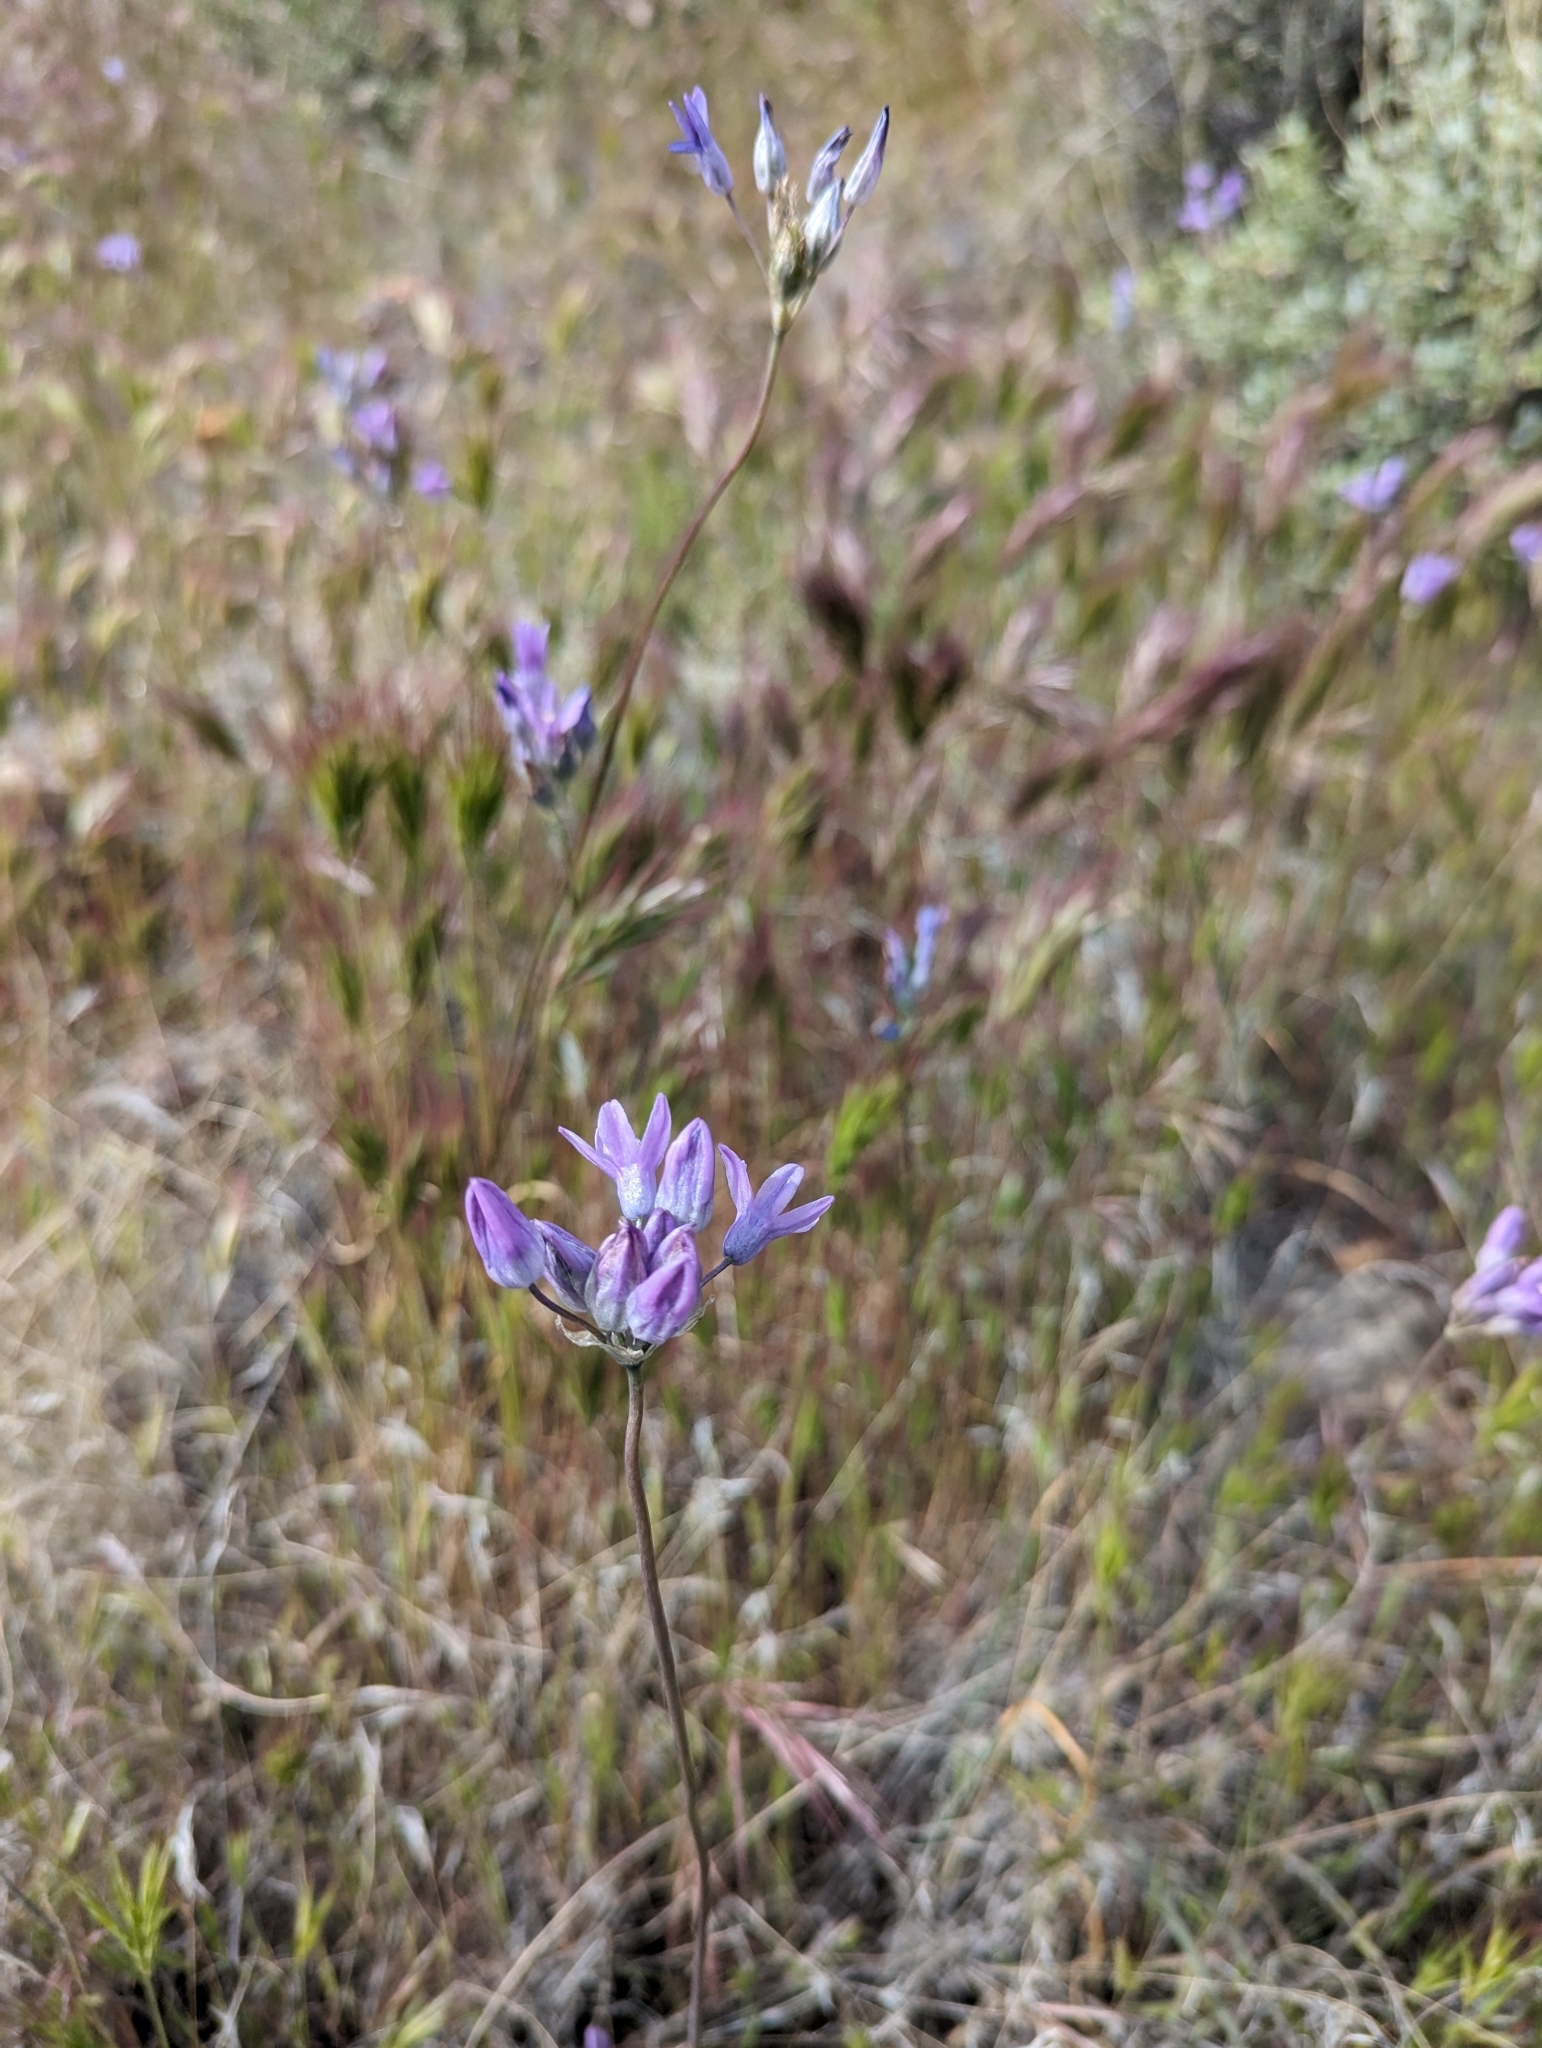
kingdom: Plantae
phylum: Tracheophyta
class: Liliopsida
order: Asparagales
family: Asparagaceae
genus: Dipterostemon
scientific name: Dipterostemon capitatus
